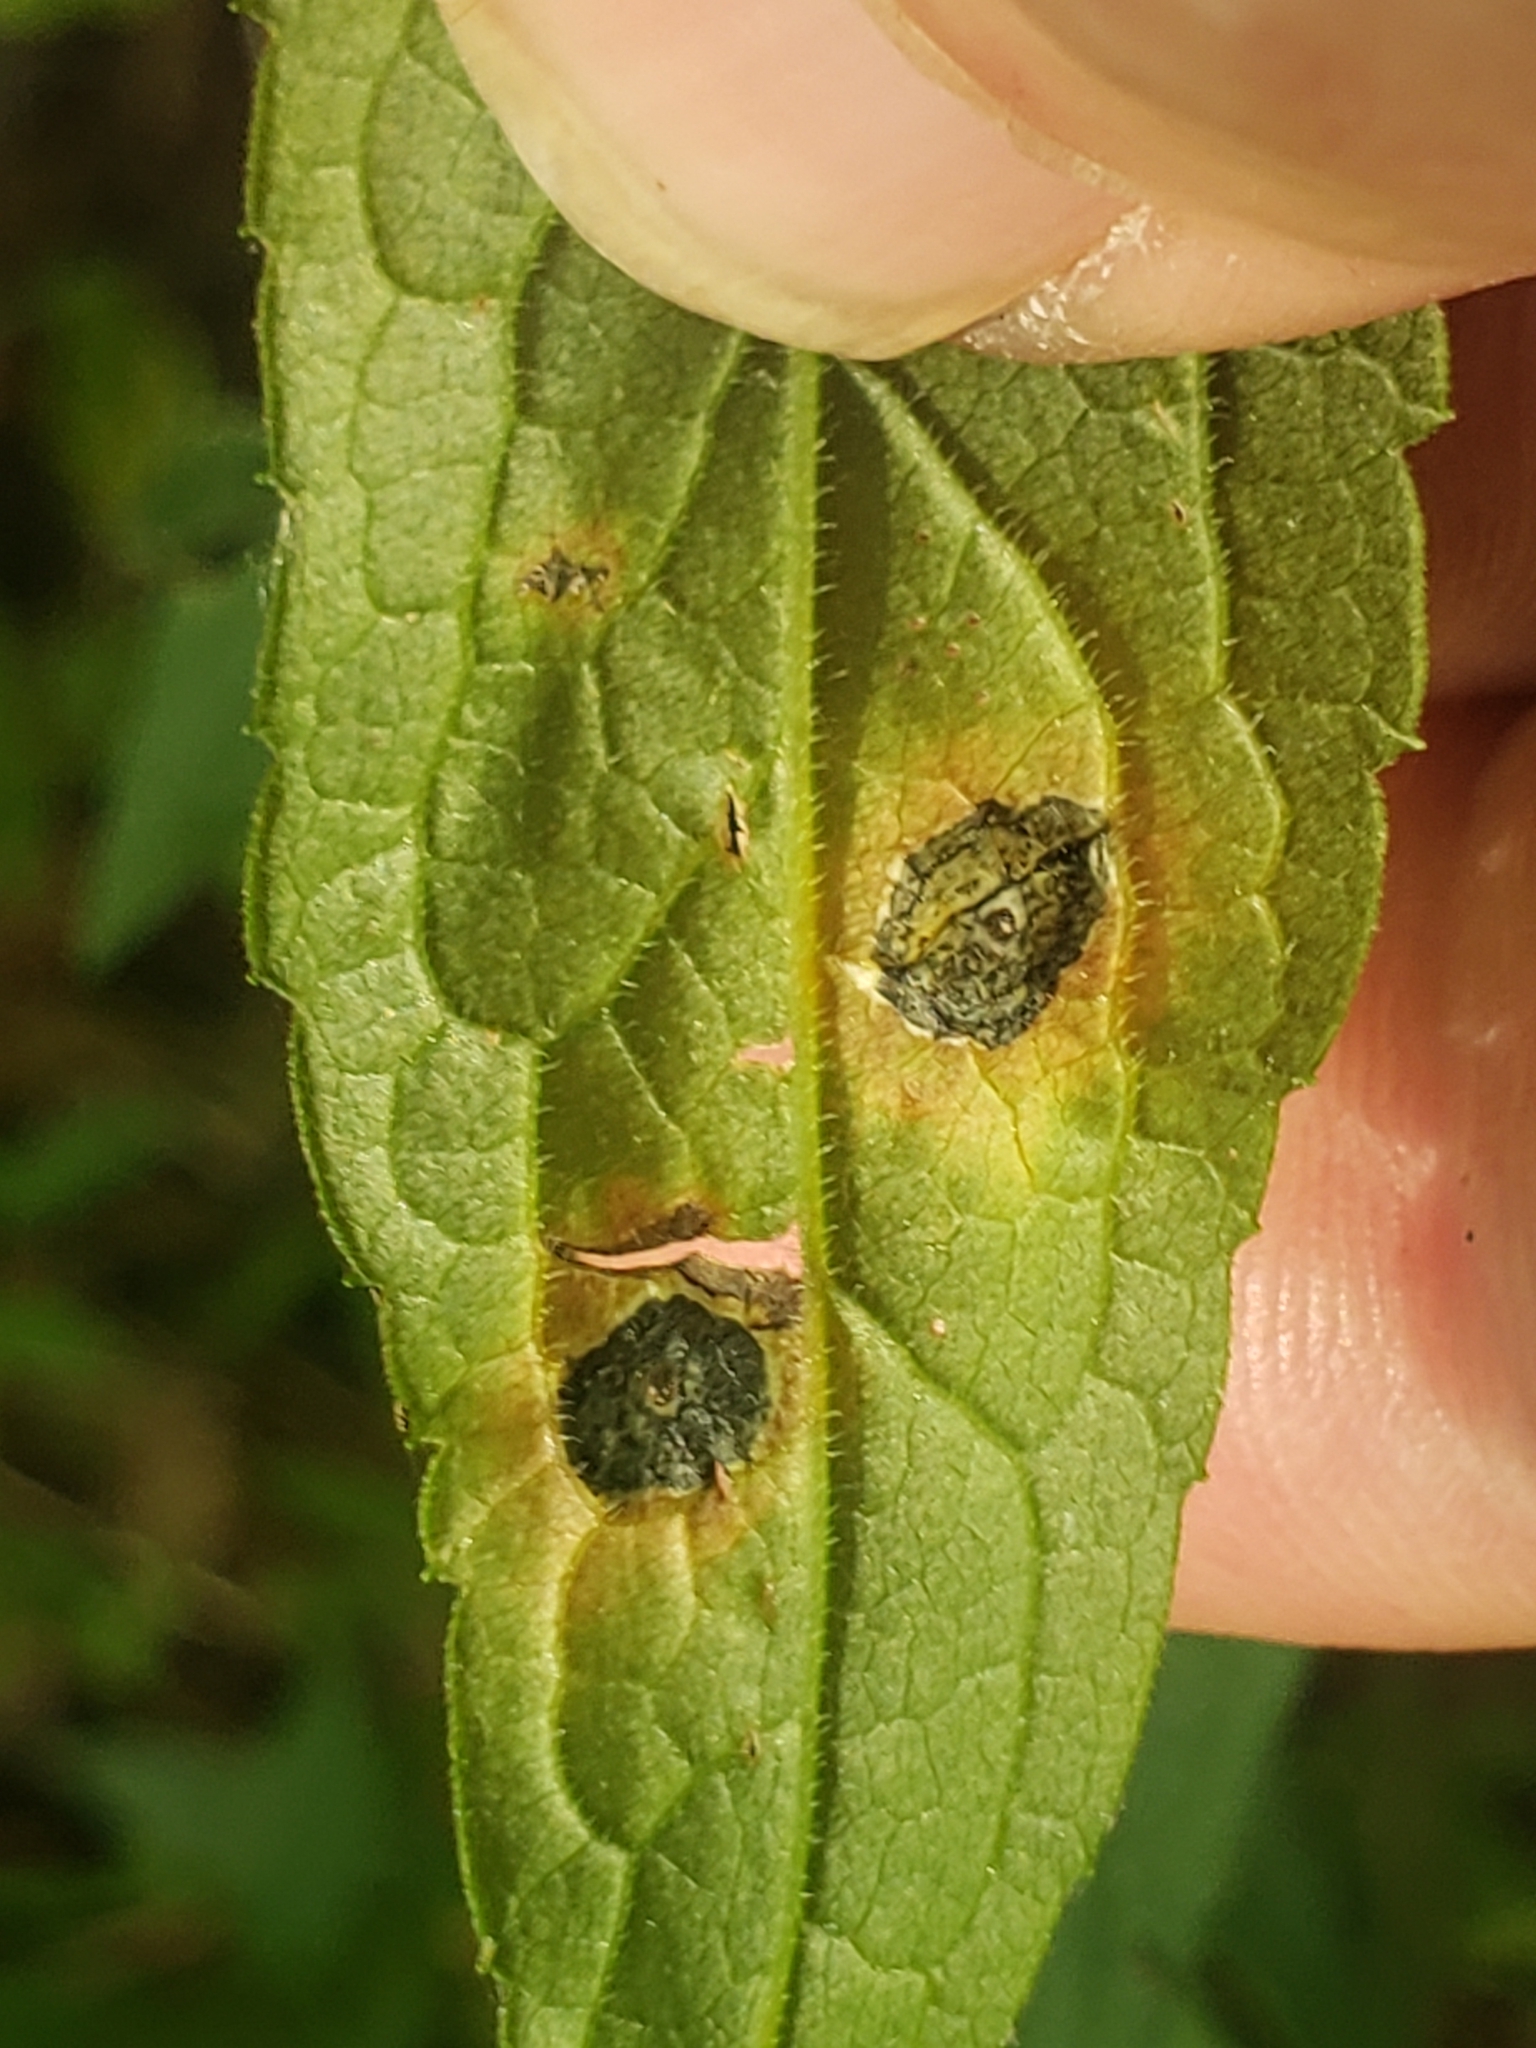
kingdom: Animalia
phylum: Arthropoda
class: Insecta
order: Diptera
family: Cecidomyiidae
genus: Asteromyia
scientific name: Asteromyia carbonifera
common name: Carbonifera goldenrod gall midge
